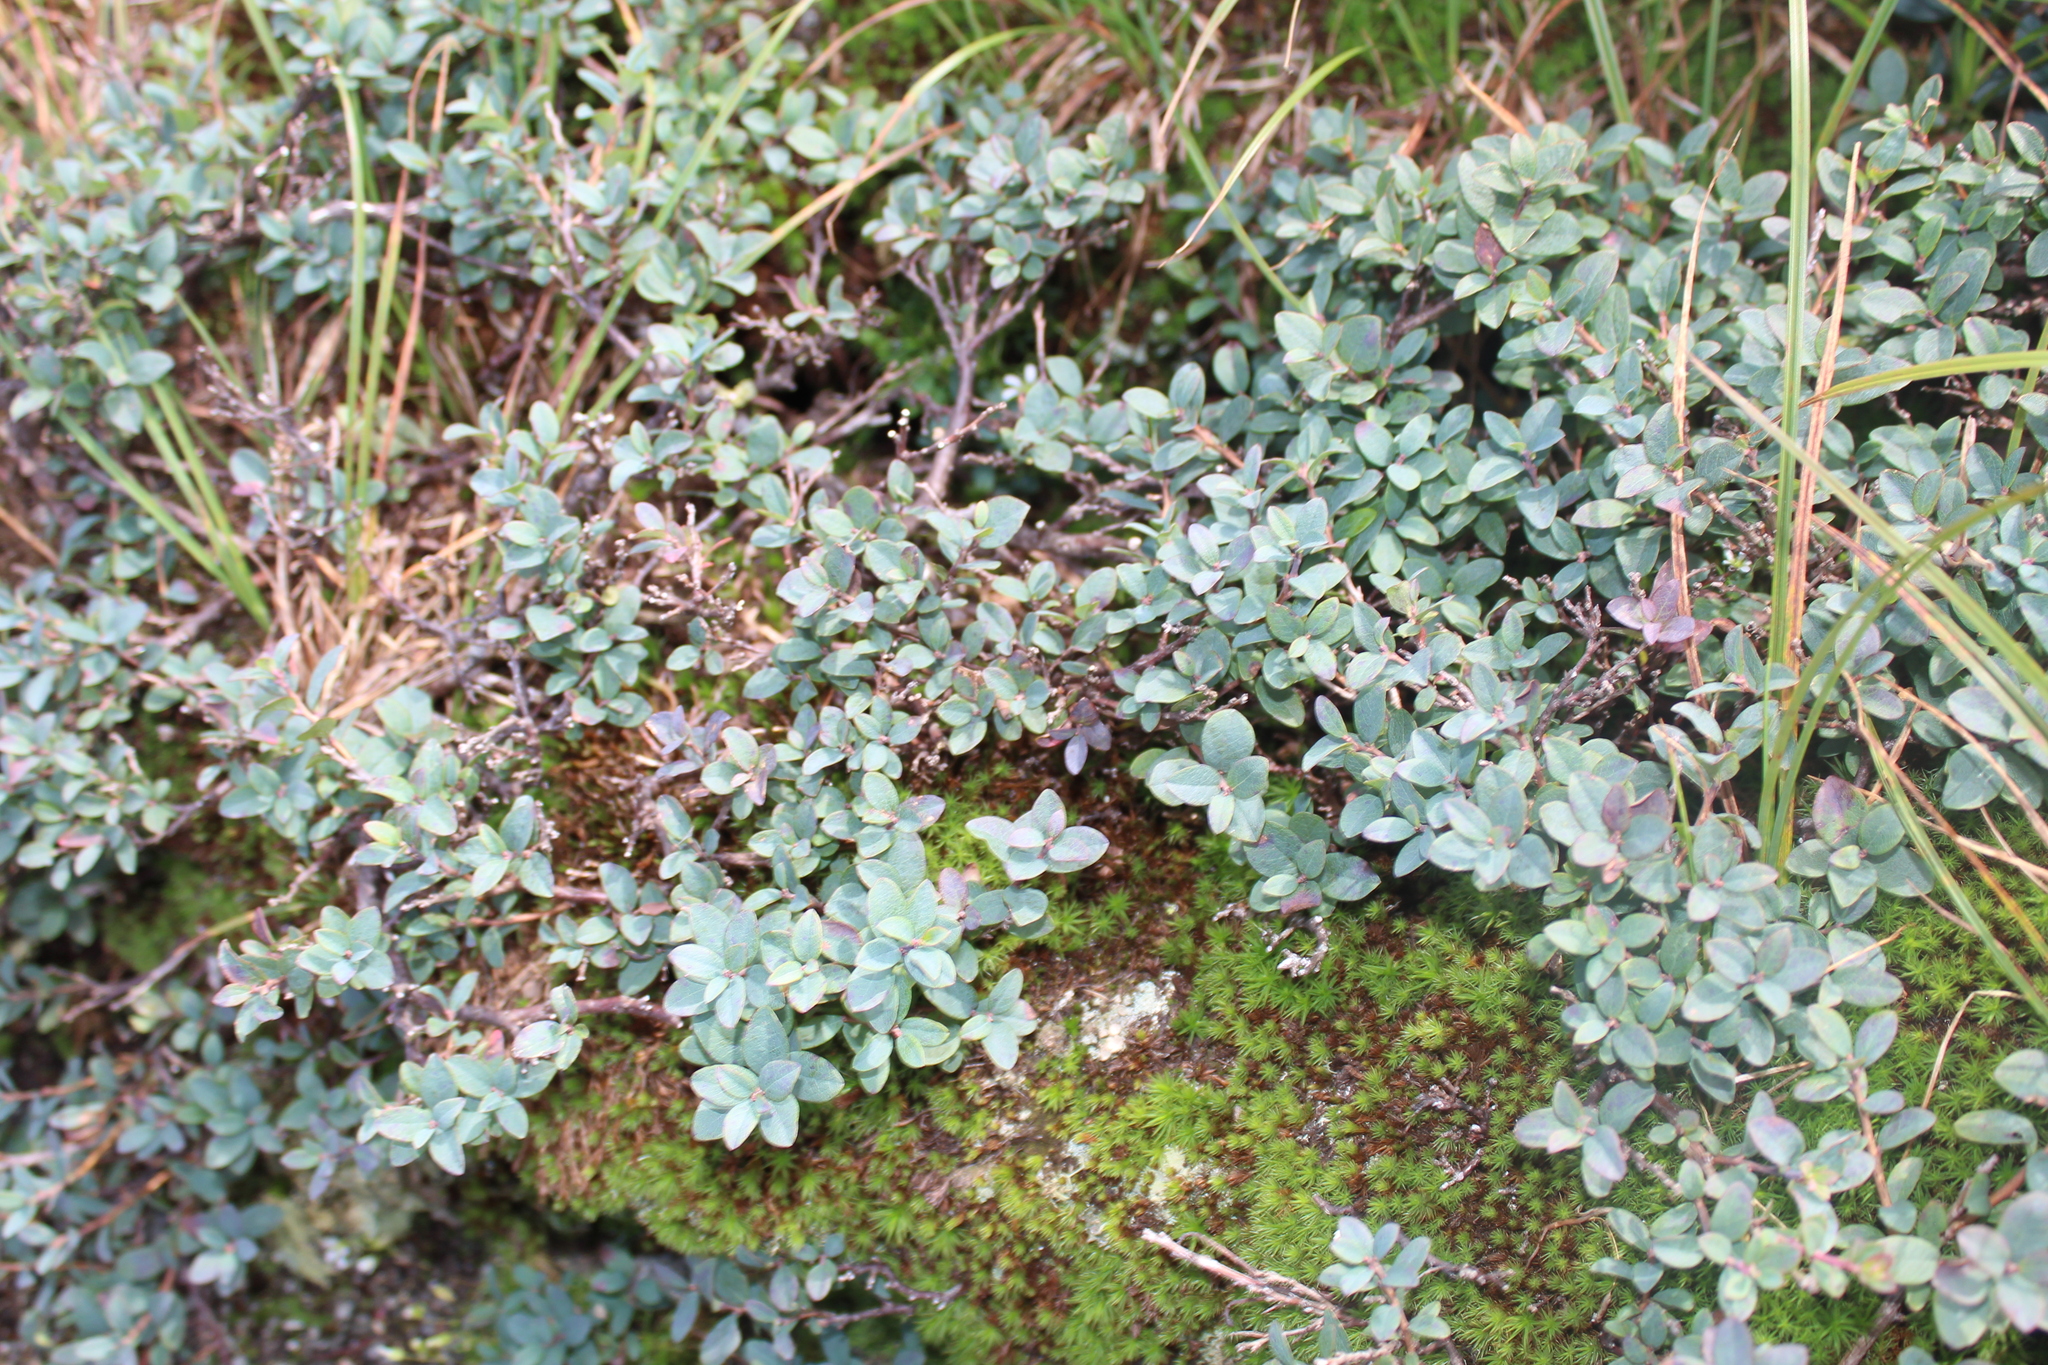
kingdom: Plantae
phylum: Tracheophyta
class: Magnoliopsida
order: Ericales
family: Ericaceae
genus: Vaccinium
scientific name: Vaccinium uliginosum
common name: Bog bilberry
